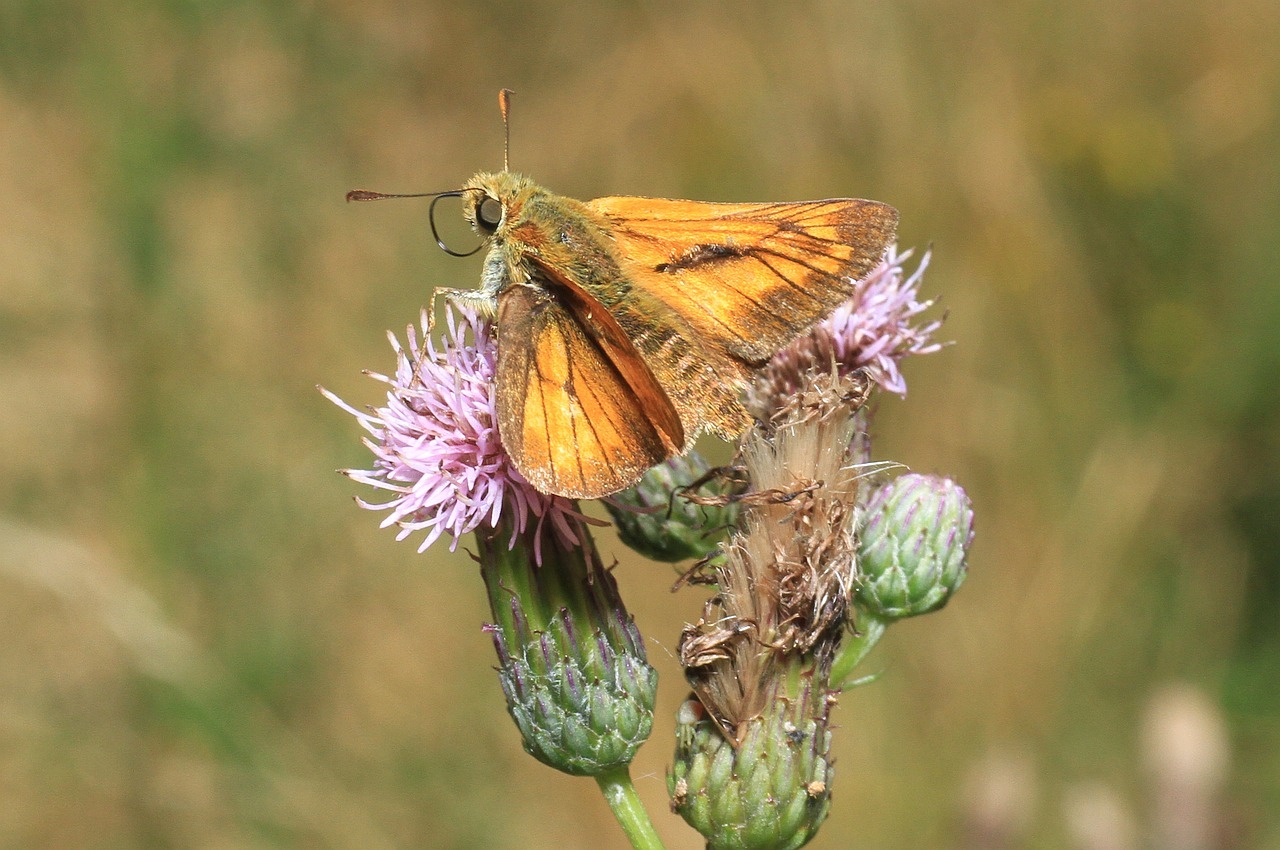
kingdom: Animalia
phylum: Arthropoda
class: Insecta
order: Lepidoptera
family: Hesperiidae
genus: Ochlodes
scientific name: Ochlodes venata
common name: Large skipper
